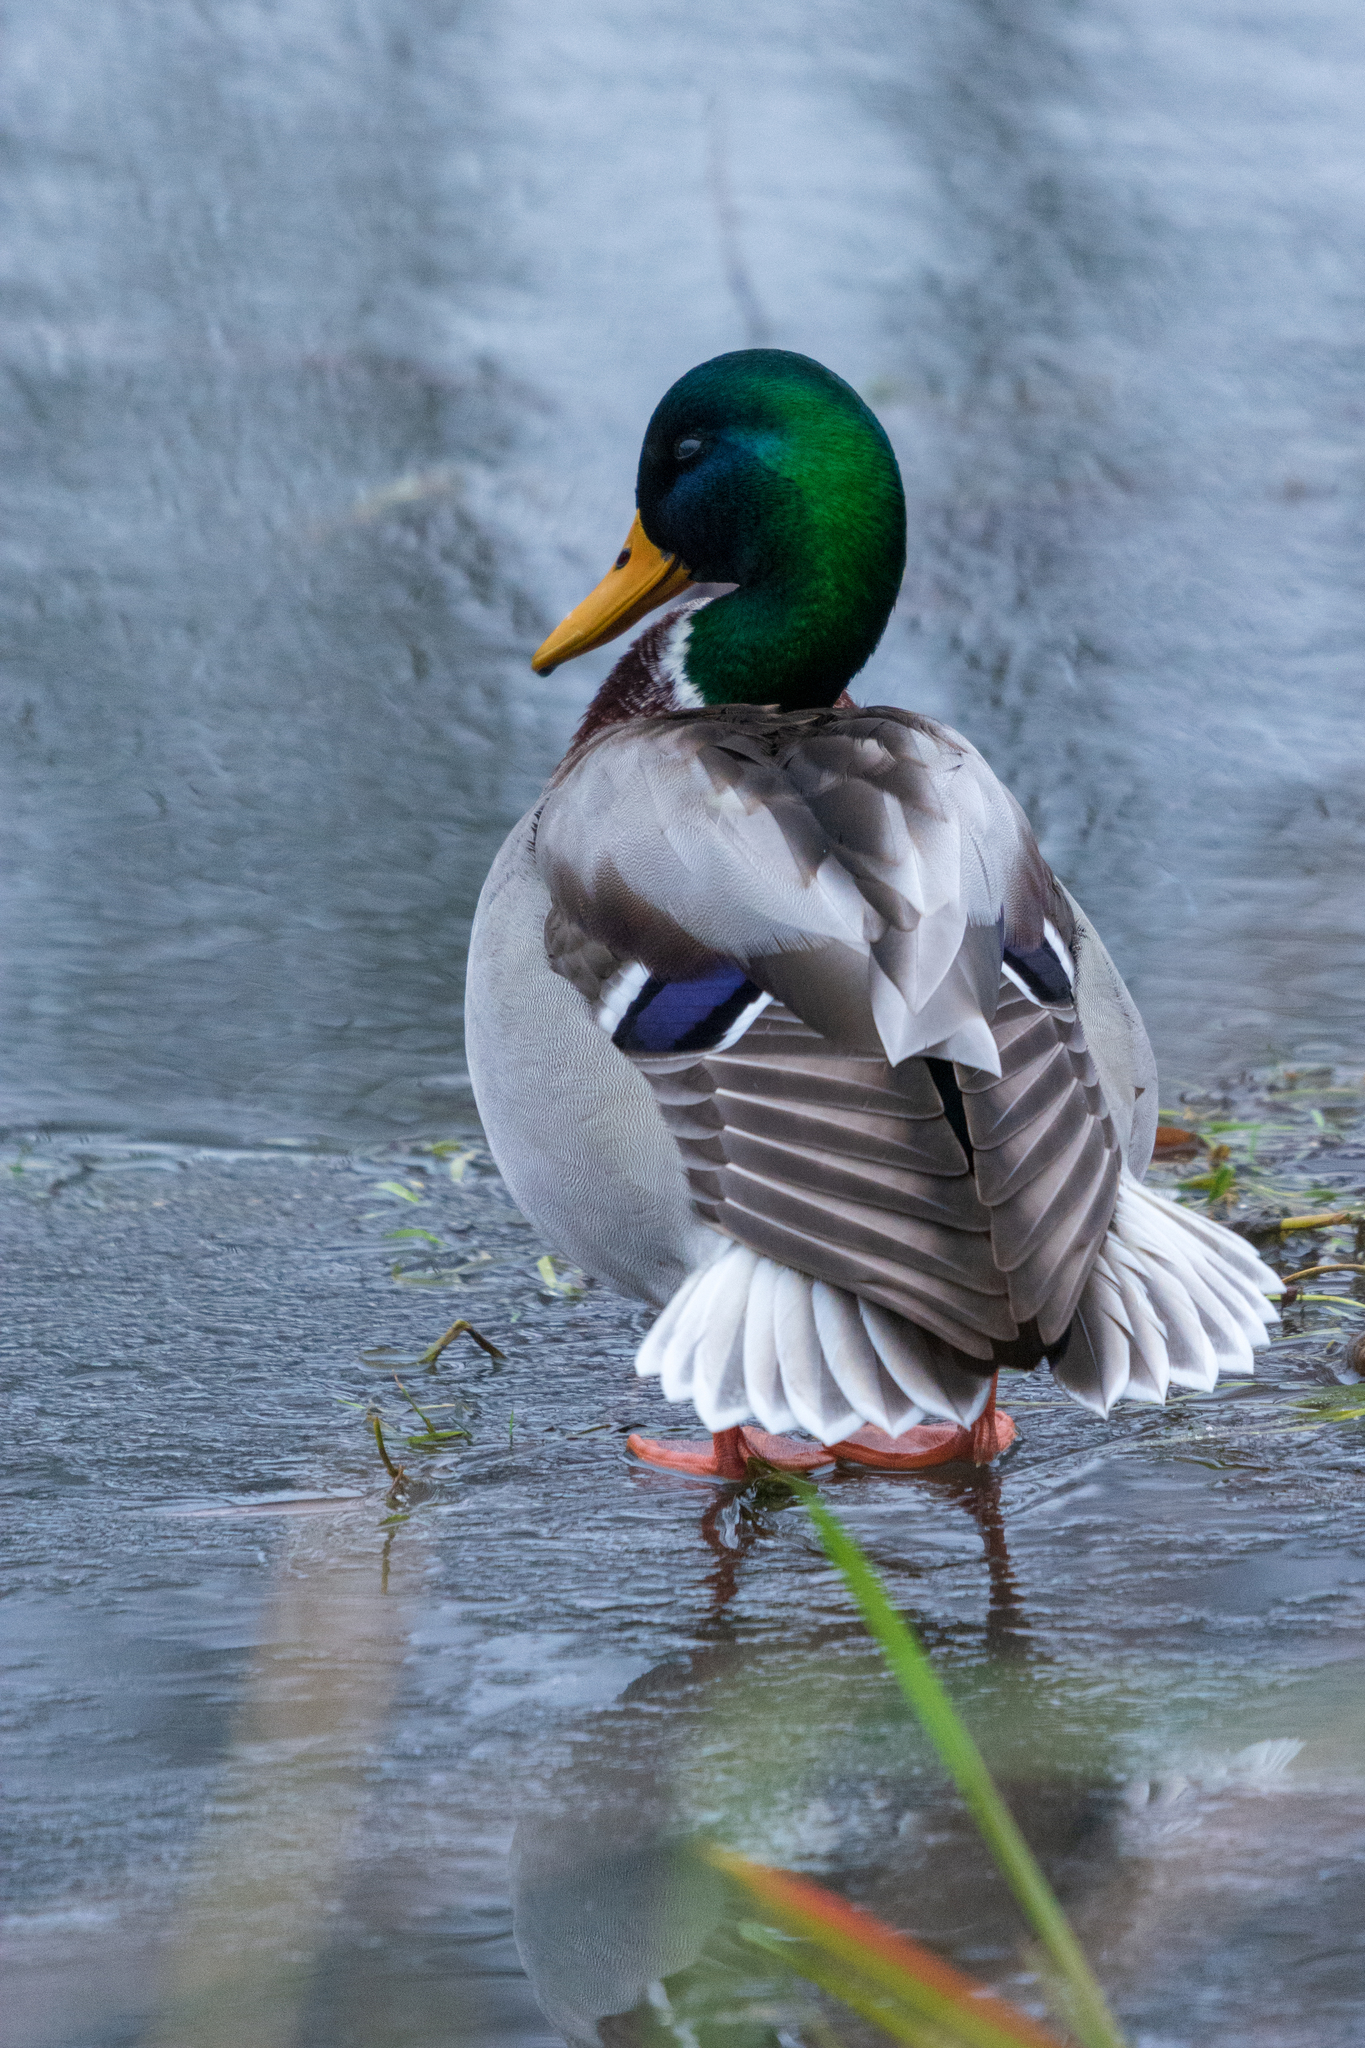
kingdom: Animalia
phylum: Chordata
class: Aves
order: Anseriformes
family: Anatidae
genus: Anas
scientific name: Anas platyrhynchos
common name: Mallard
